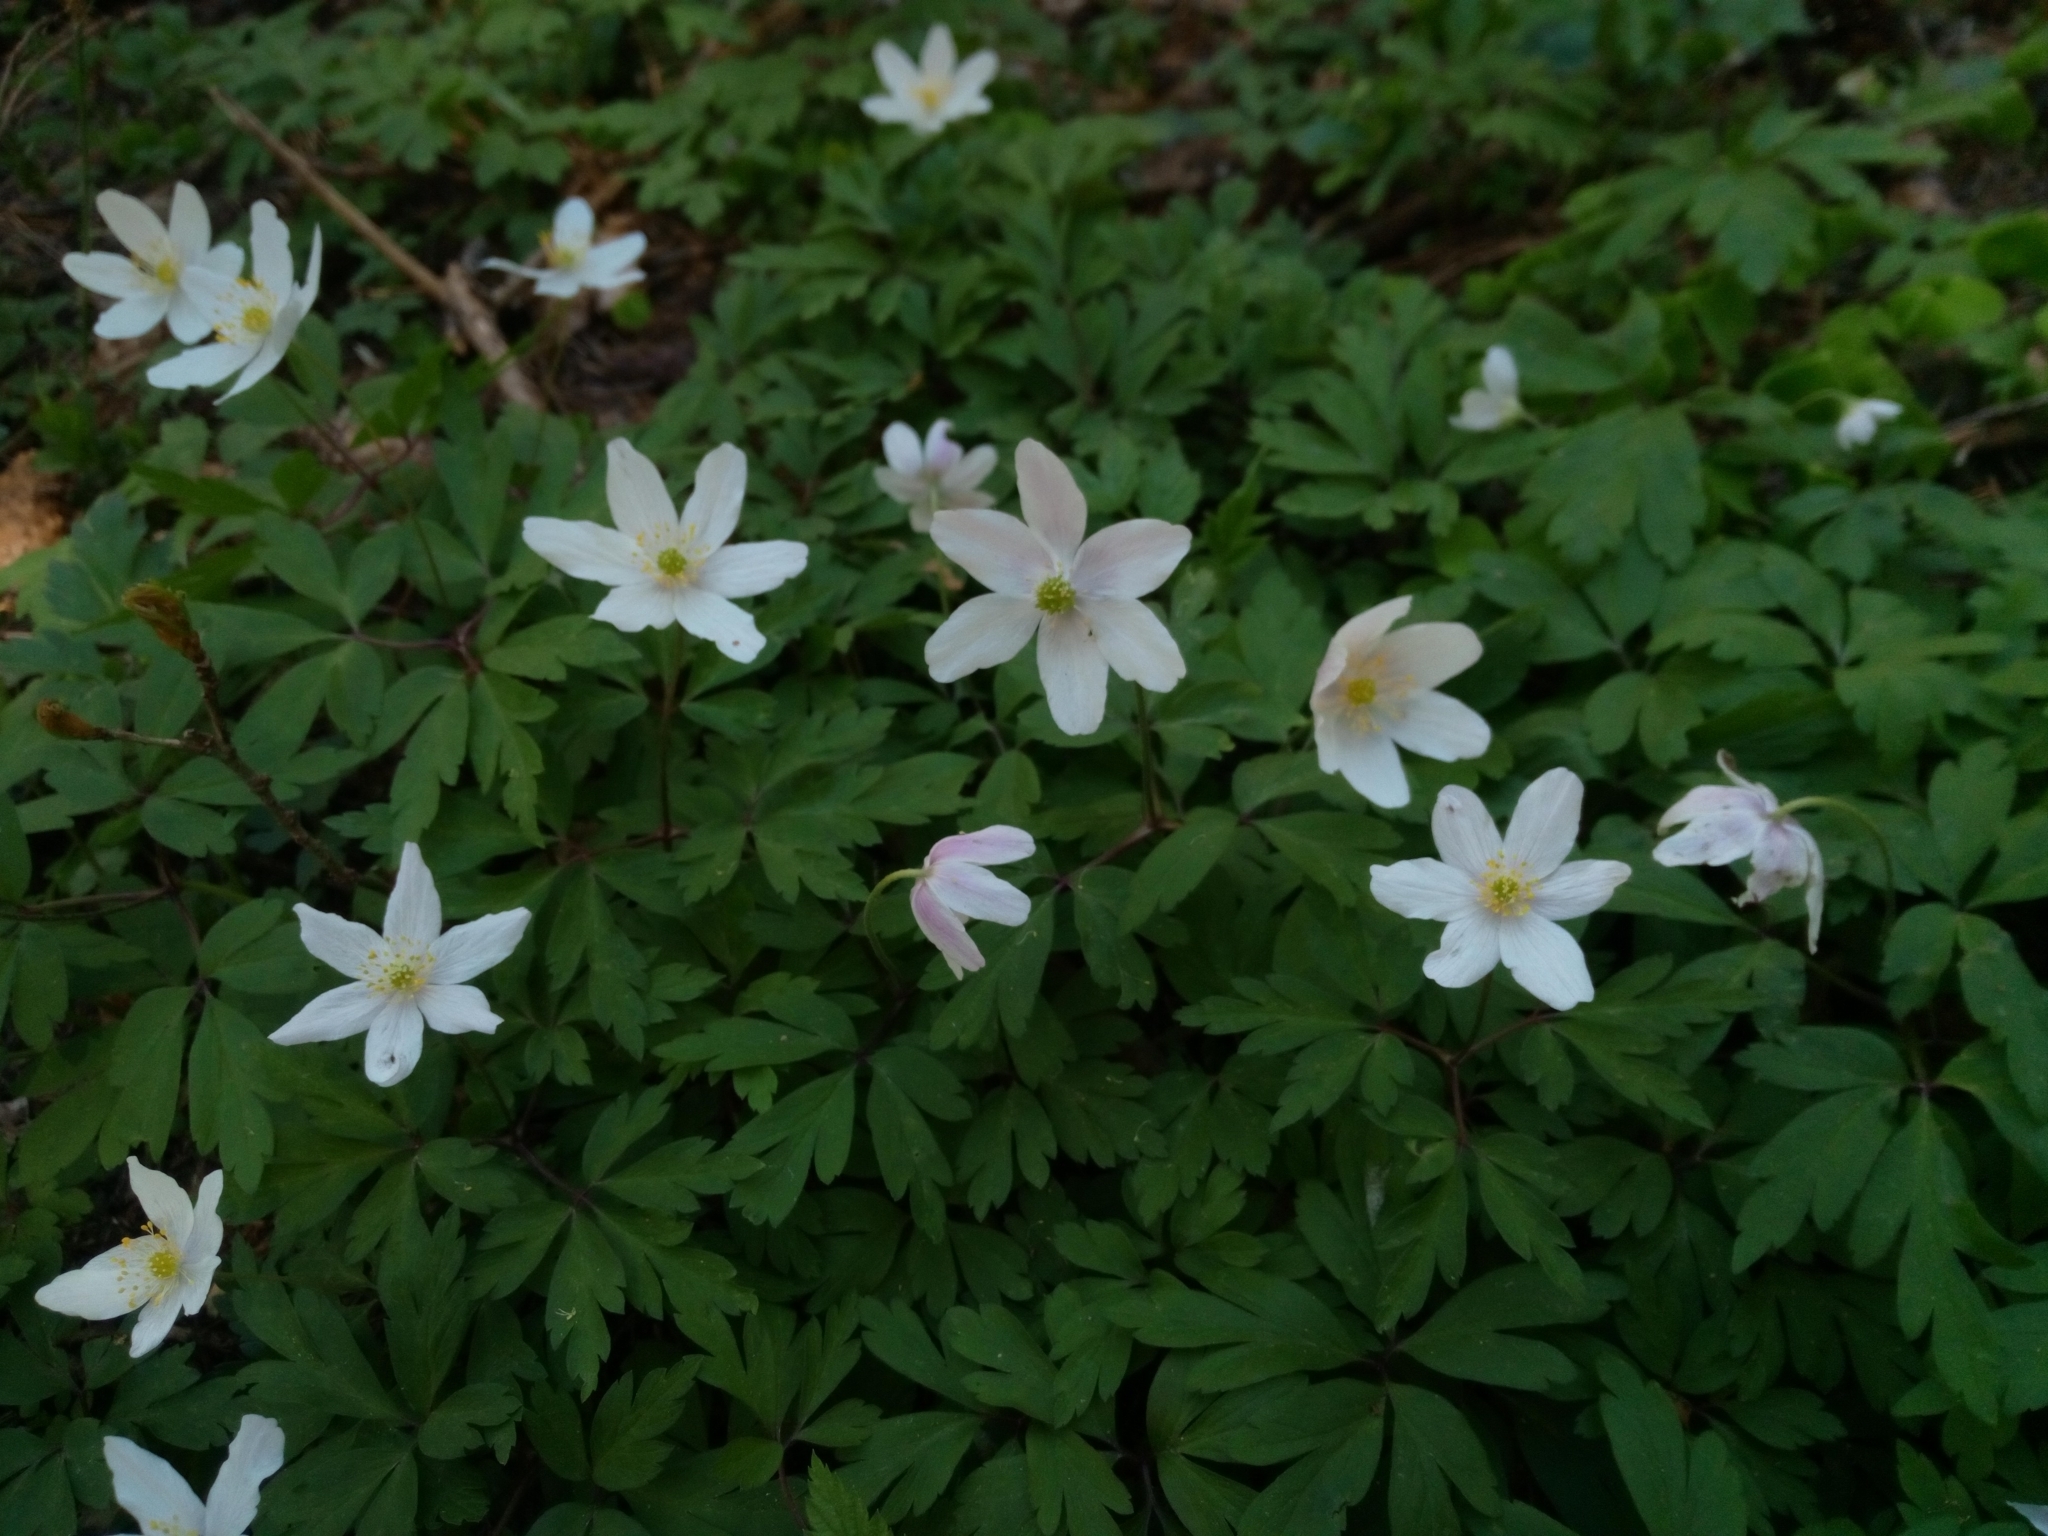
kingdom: Plantae
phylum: Tracheophyta
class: Magnoliopsida
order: Ranunculales
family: Ranunculaceae
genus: Anemone
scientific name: Anemone nemorosa
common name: Wood anemone
